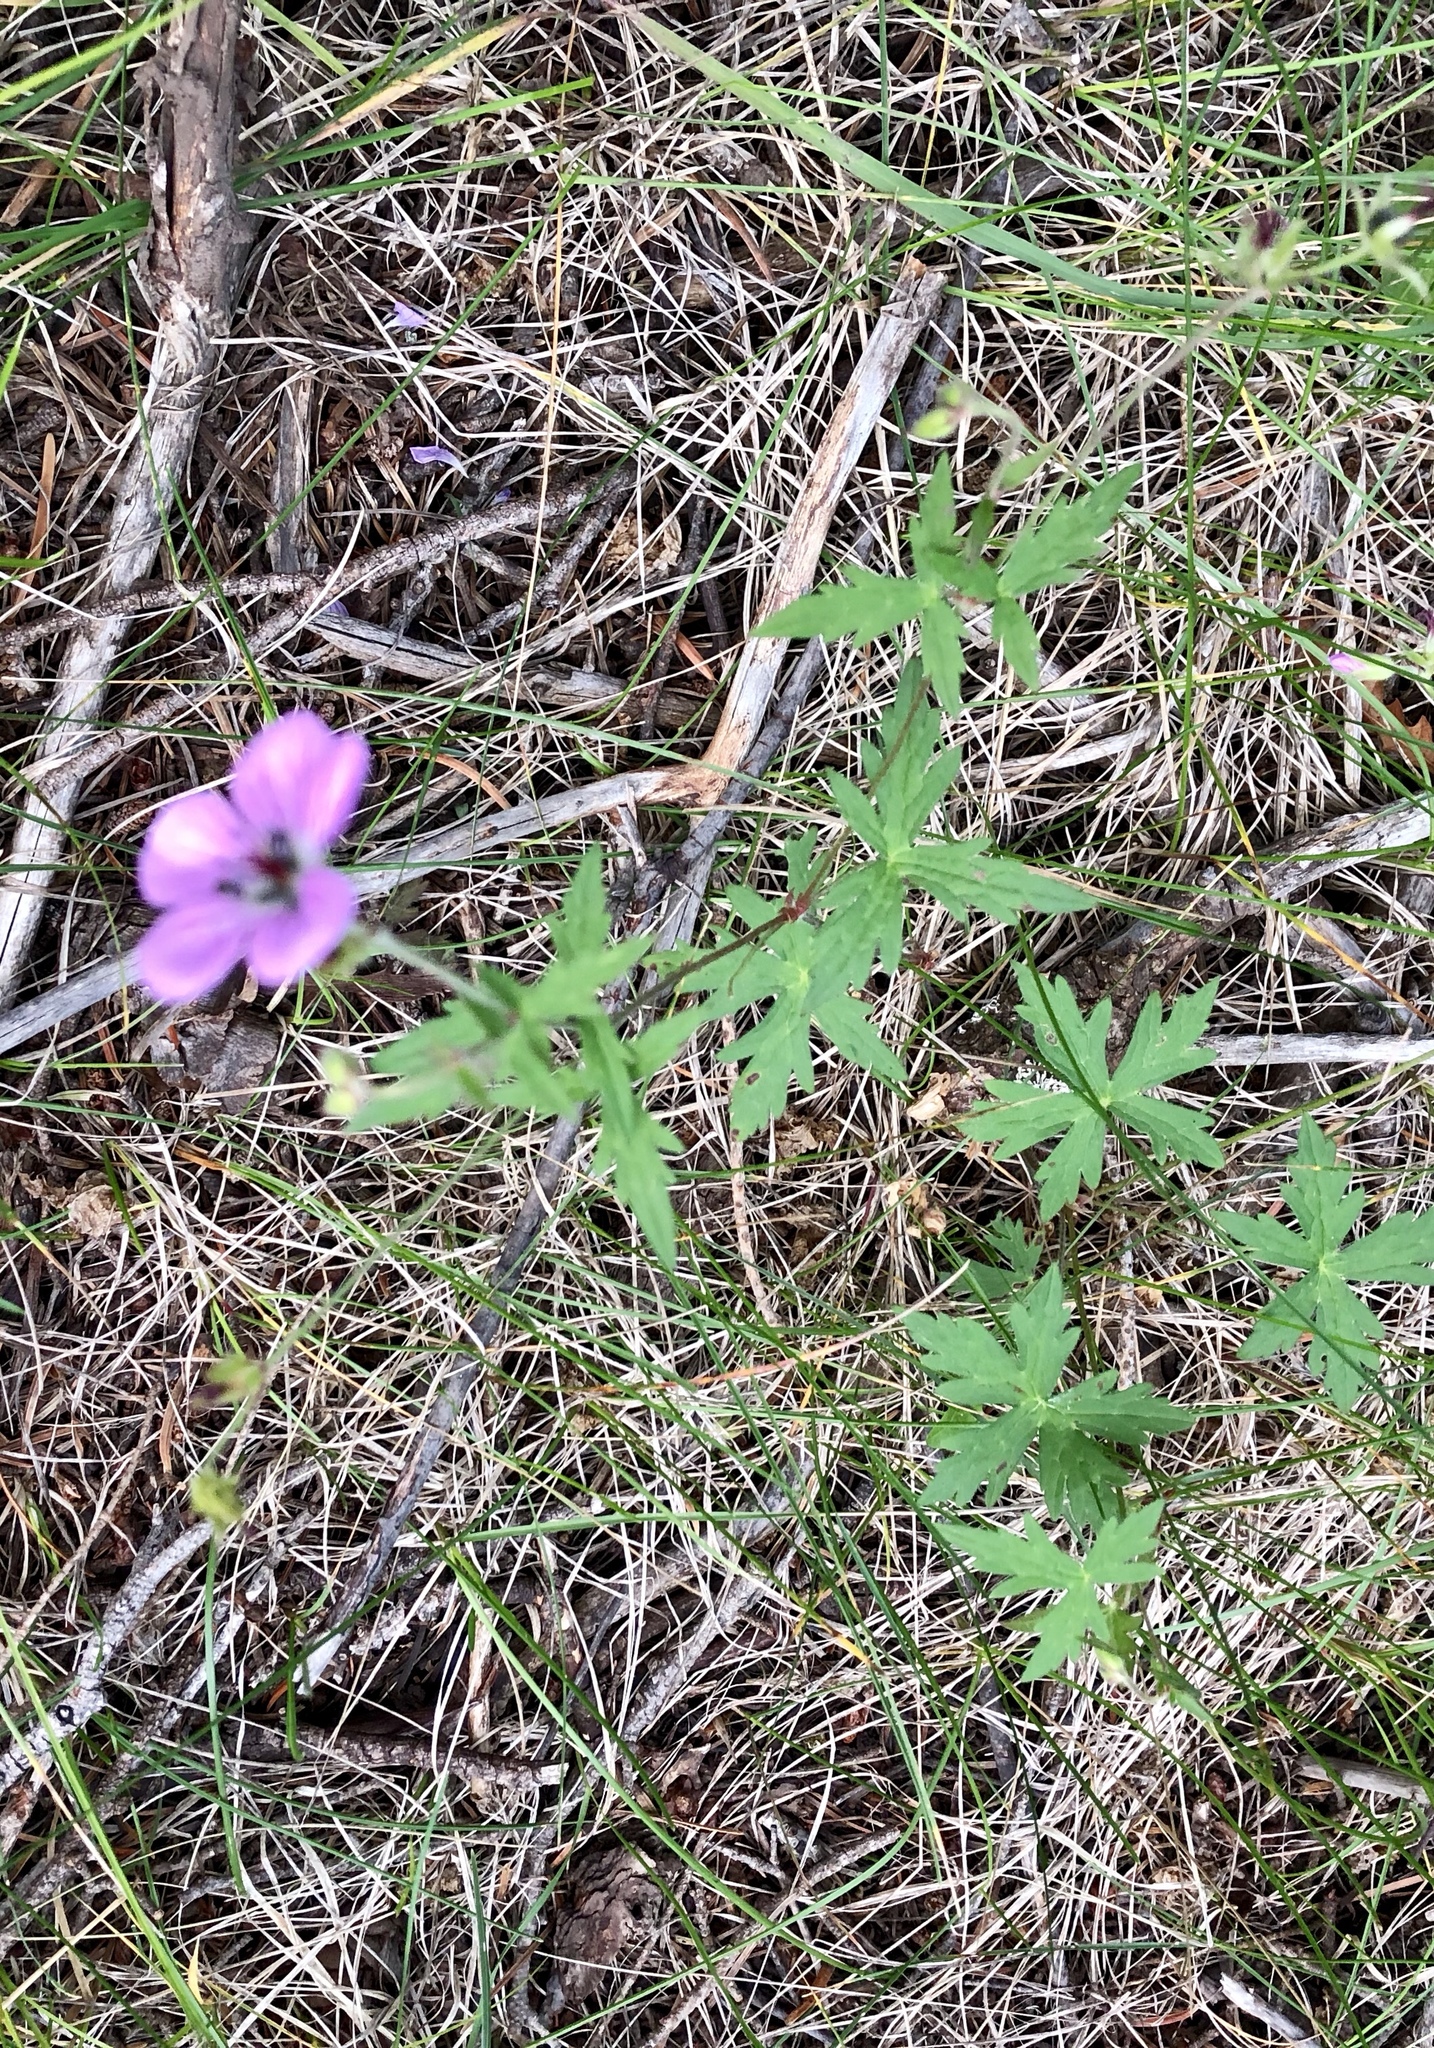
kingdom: Plantae
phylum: Tracheophyta
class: Magnoliopsida
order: Geraniales
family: Geraniaceae
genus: Geranium
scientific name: Geranium richardsonii
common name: Richardson's crane's-bill
